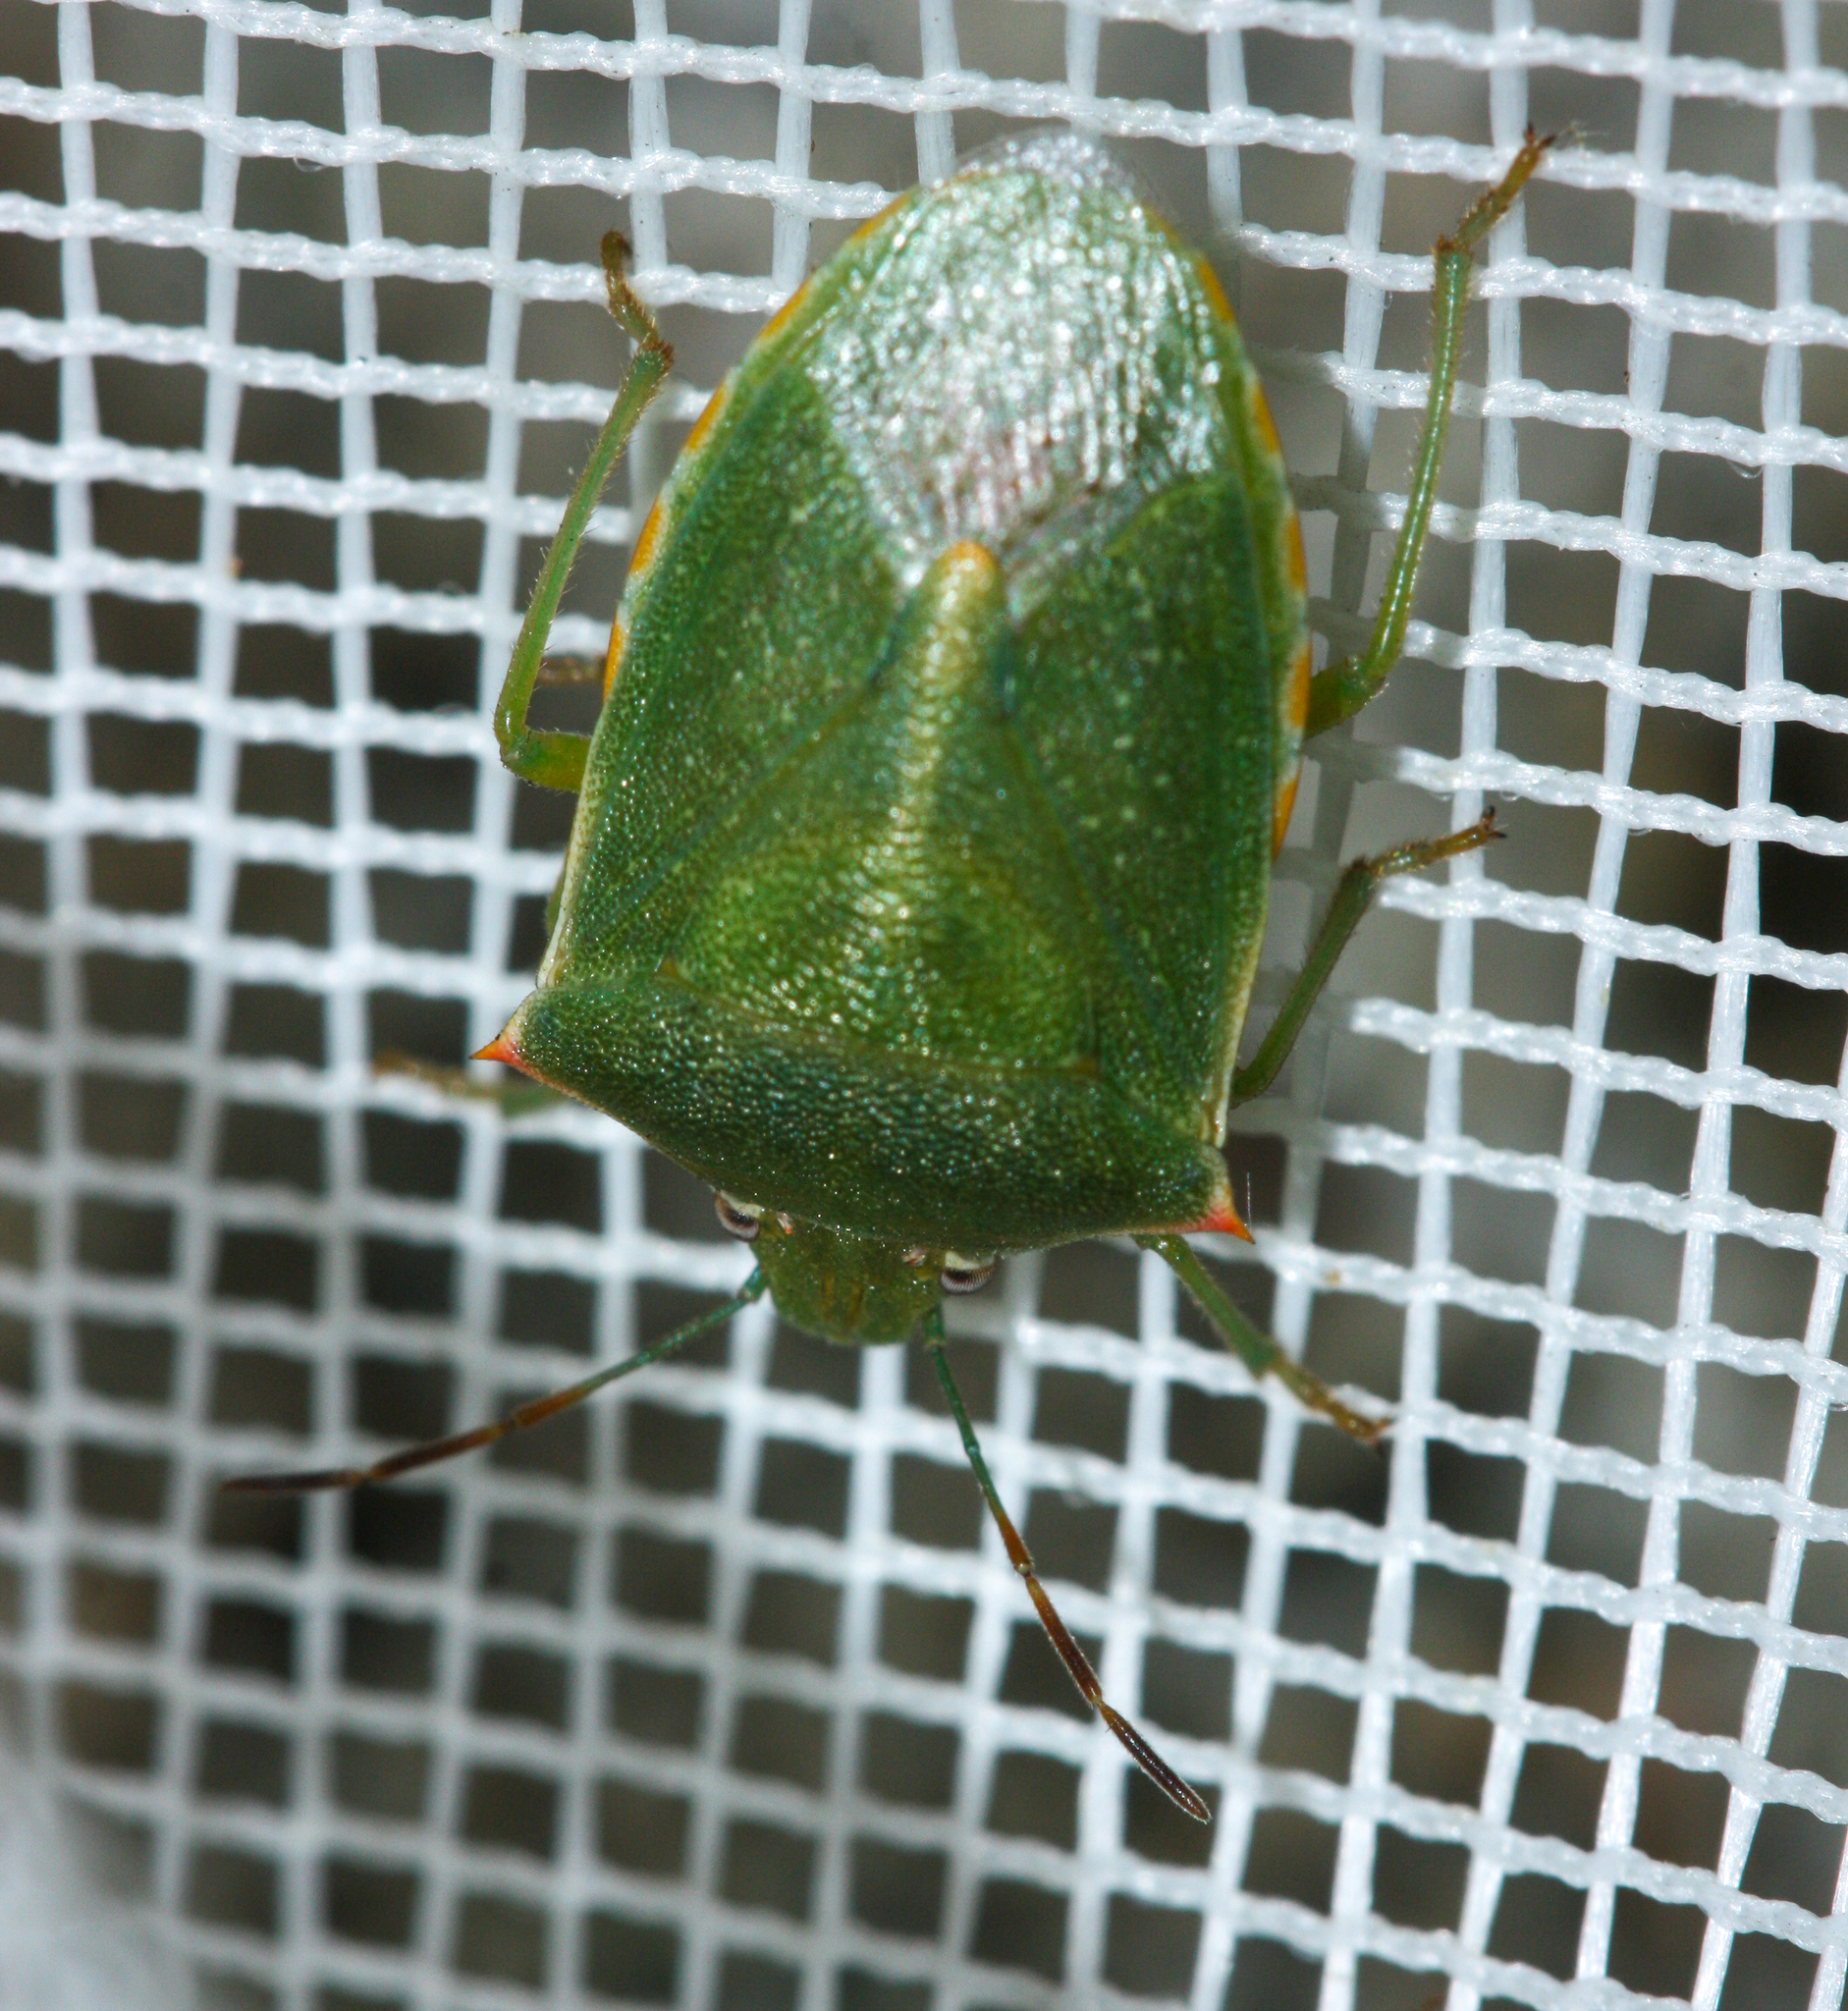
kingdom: Animalia
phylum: Arthropoda
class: Insecta
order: Hemiptera
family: Pentatomidae
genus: Thyanta
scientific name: Thyanta accerra
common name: Stink bug
